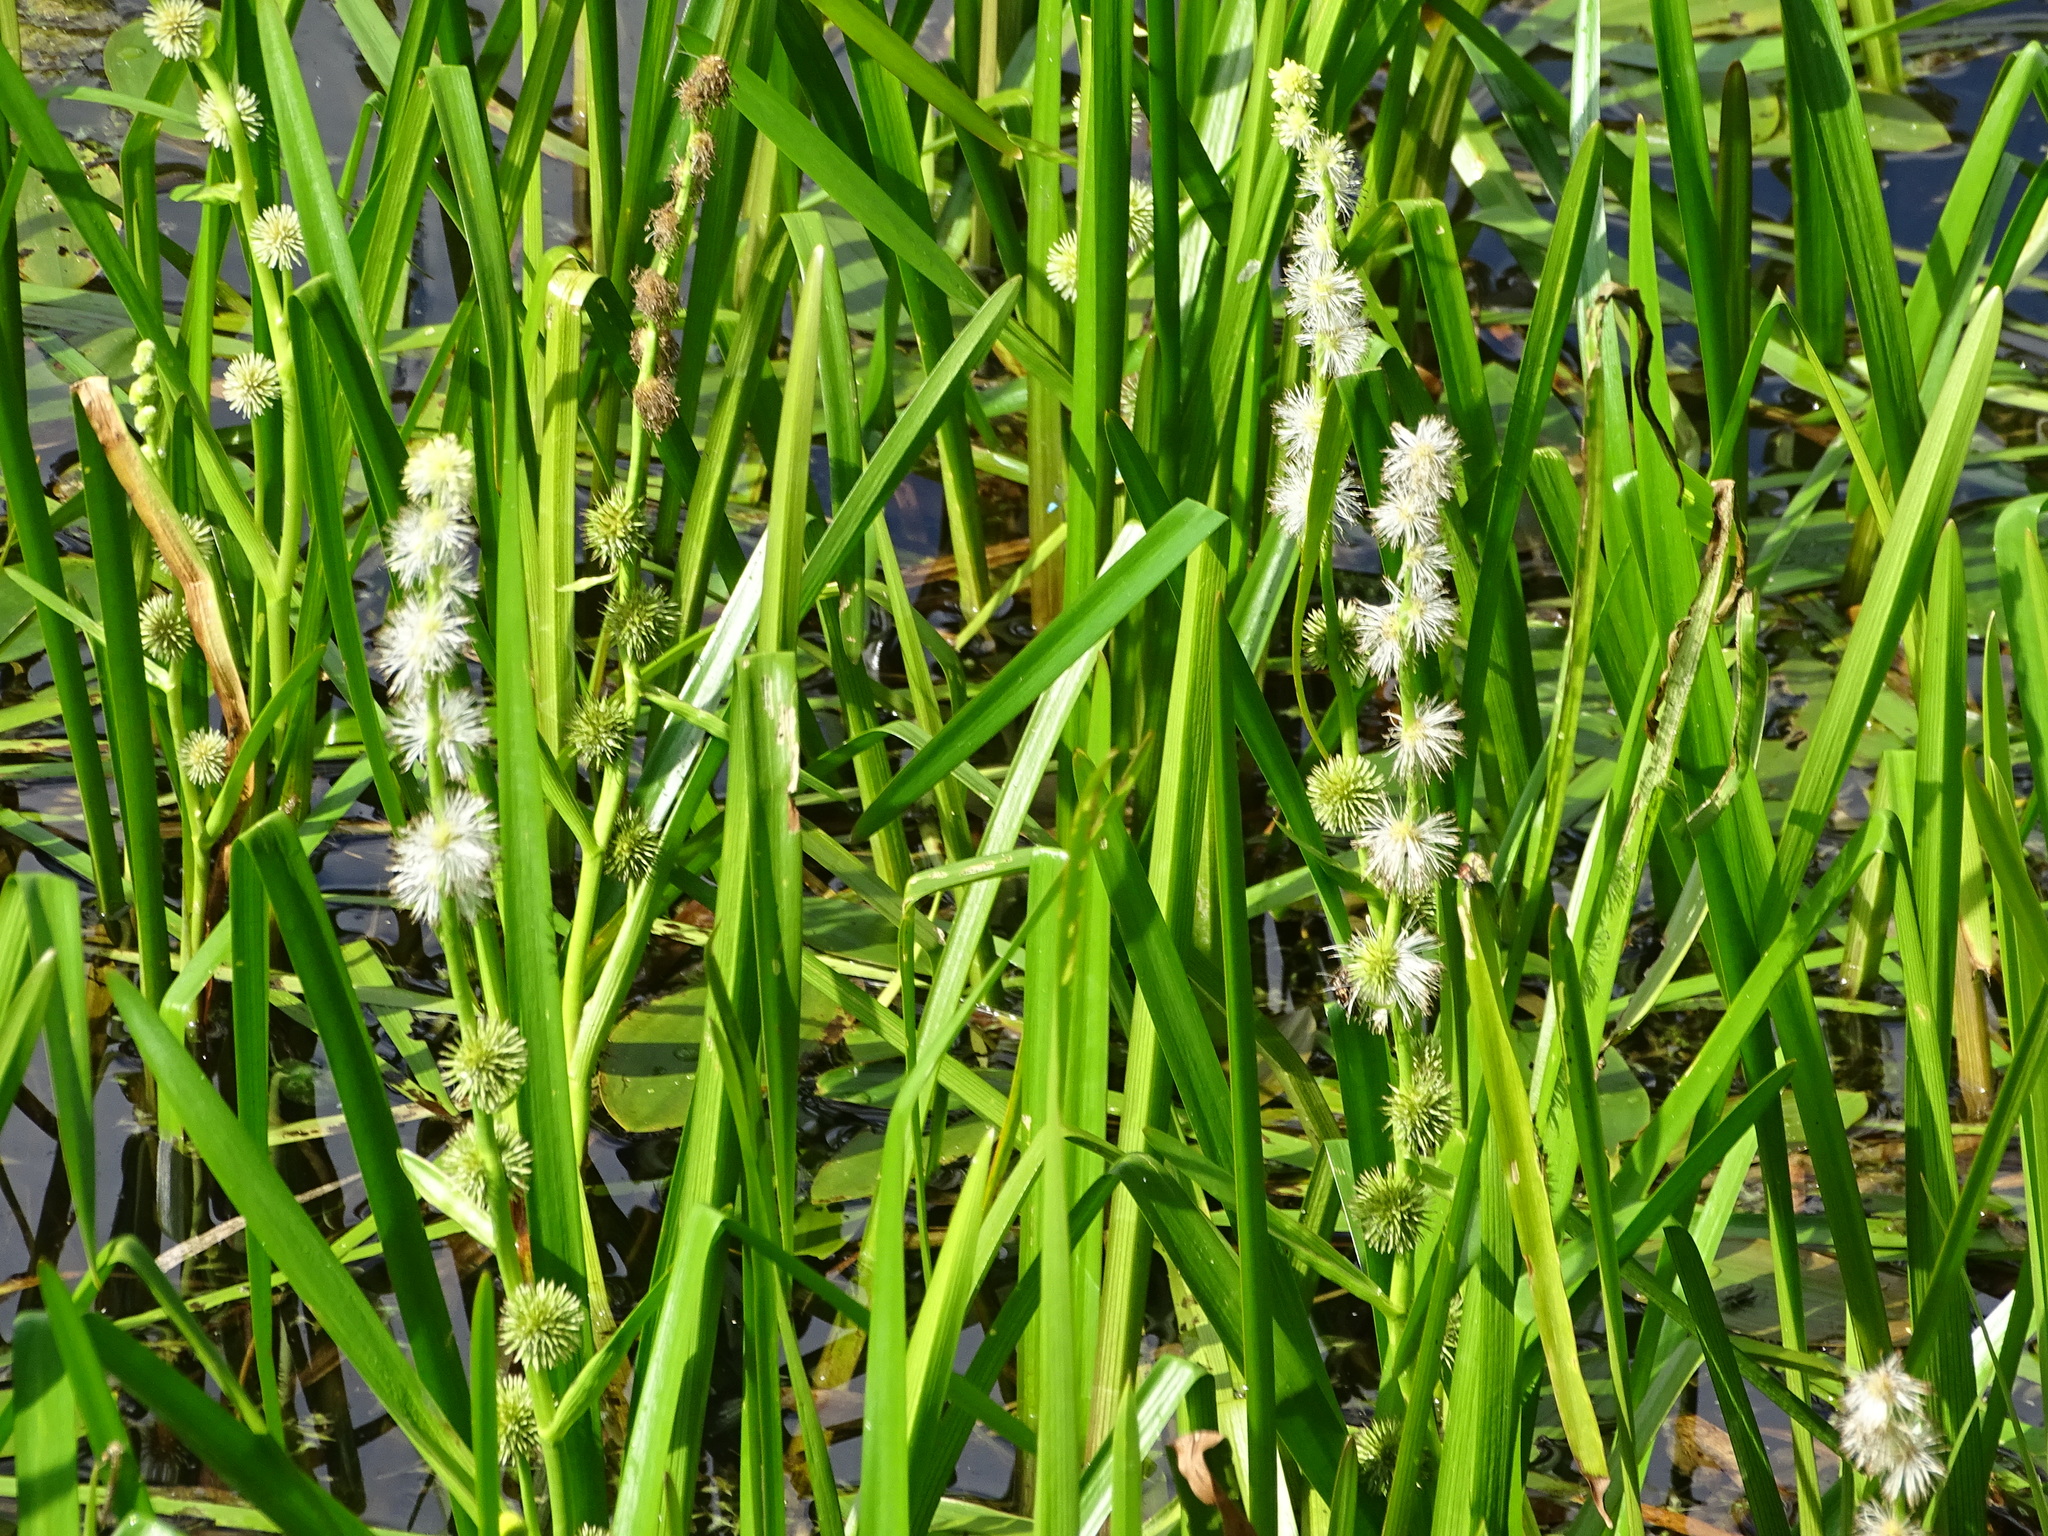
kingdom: Plantae
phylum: Tracheophyta
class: Liliopsida
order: Poales
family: Typhaceae
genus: Sparganium
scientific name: Sparganium emersum
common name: Unbranched bur-reed
